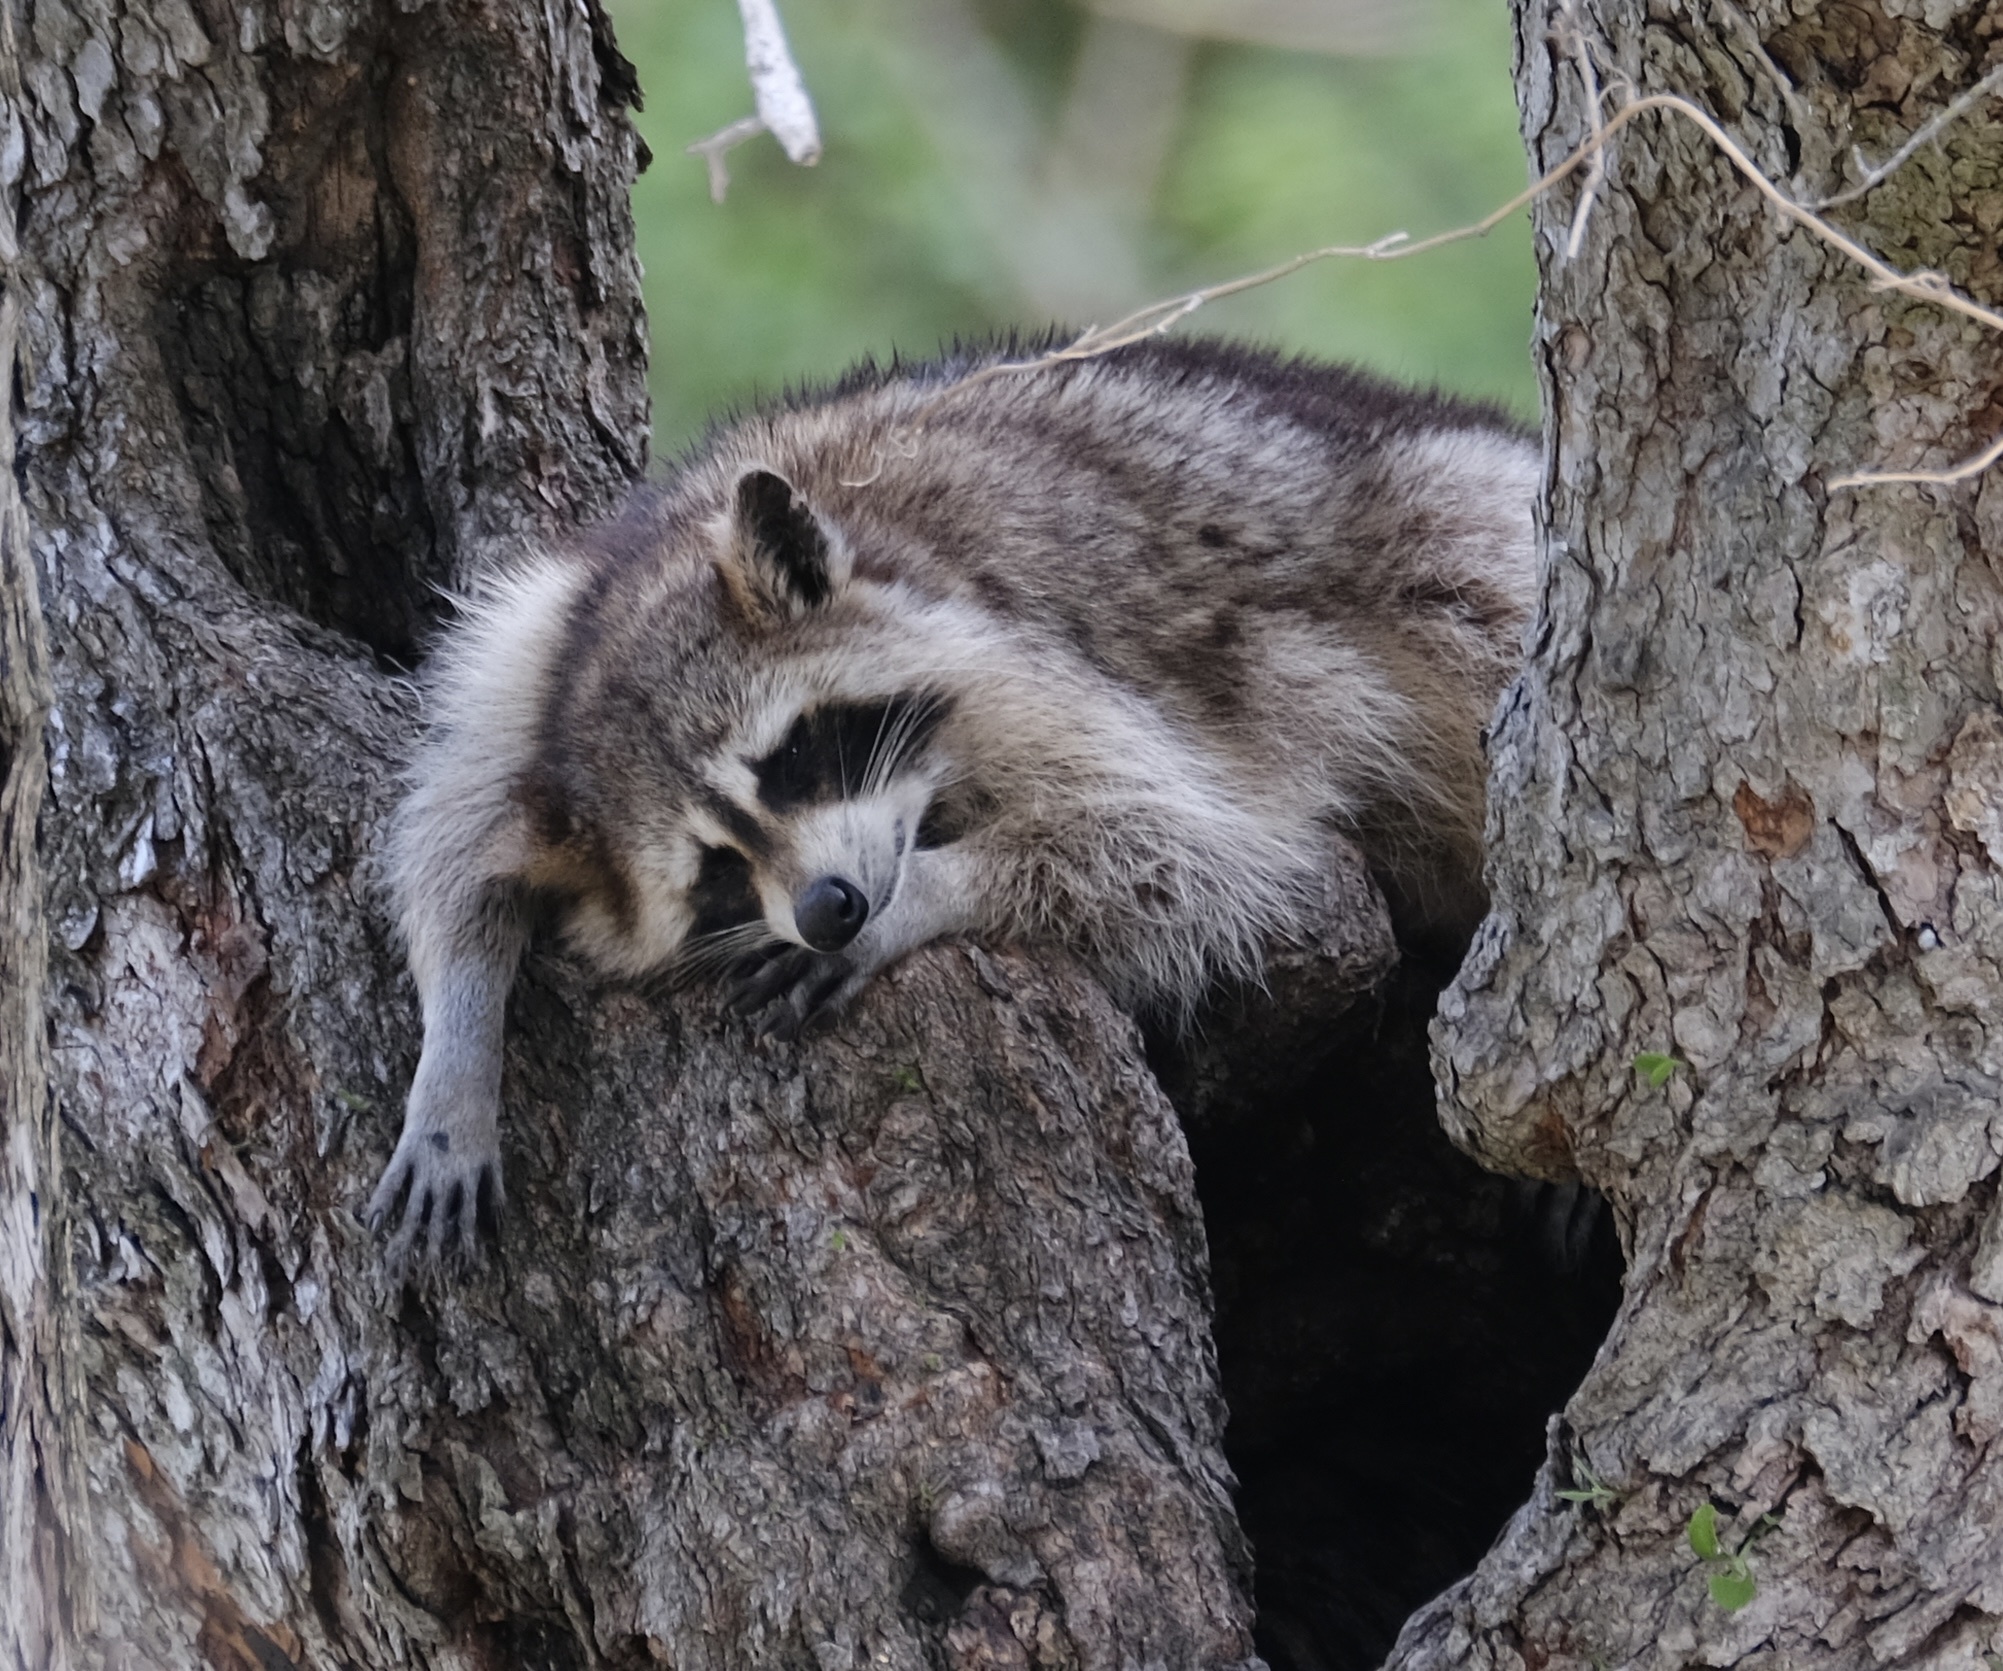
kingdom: Animalia
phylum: Chordata
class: Mammalia
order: Carnivora
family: Procyonidae
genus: Procyon
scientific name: Procyon lotor
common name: Raccoon
